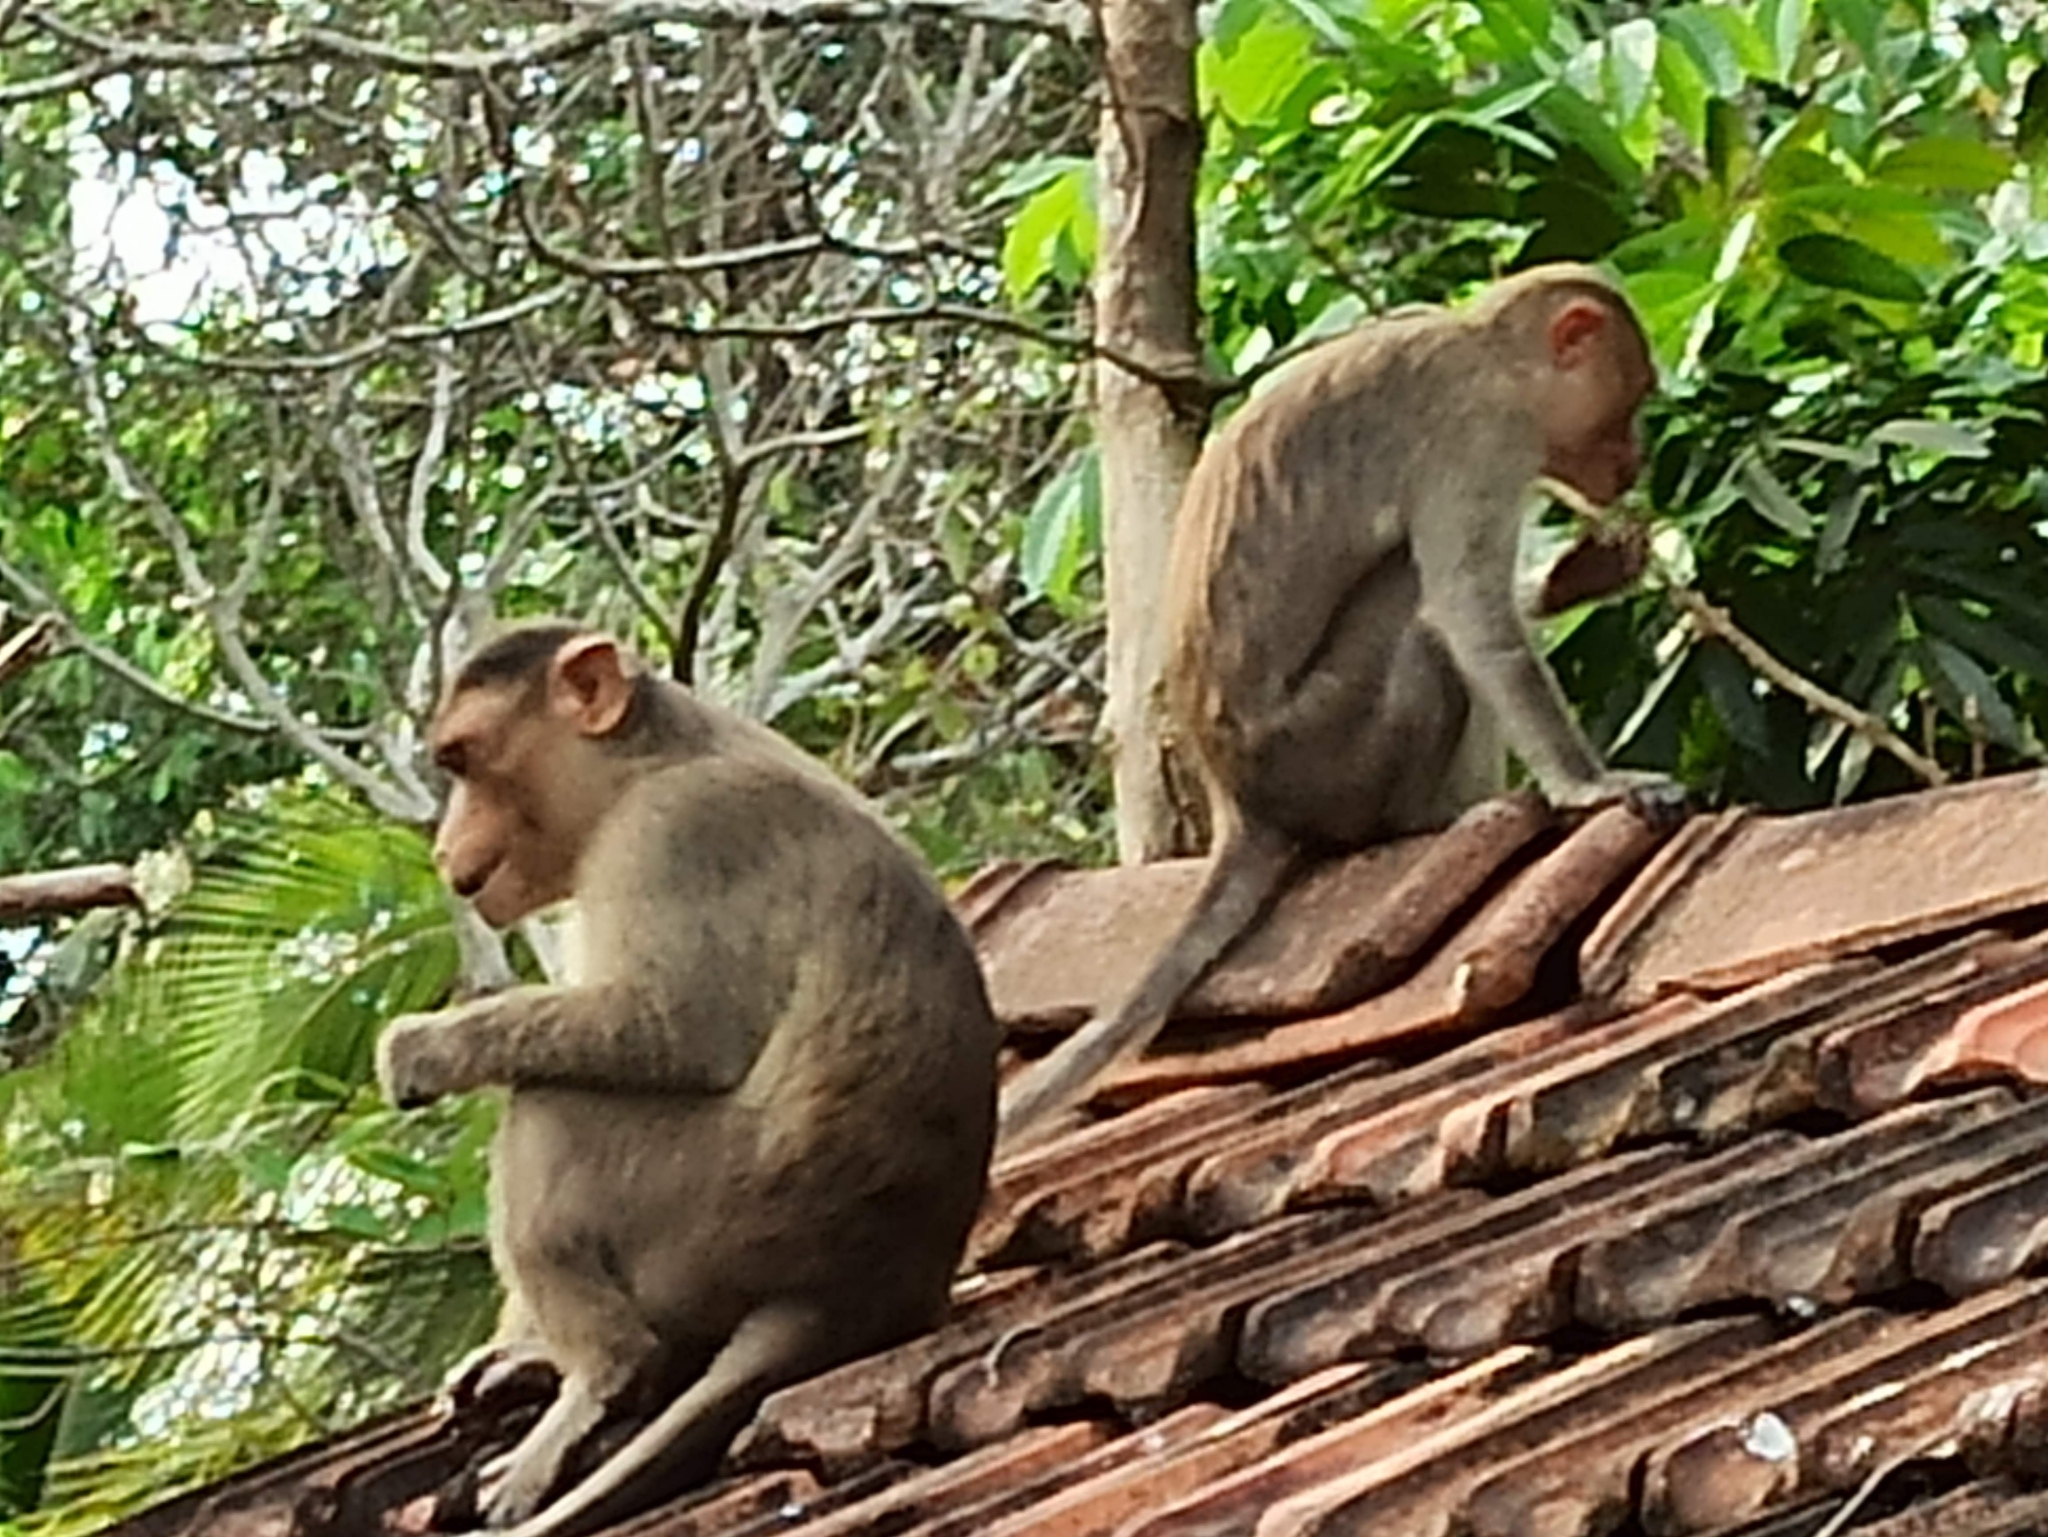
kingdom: Animalia
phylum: Chordata
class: Mammalia
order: Primates
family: Cercopithecidae
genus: Macaca
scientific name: Macaca radiata
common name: Bonnet macaque
